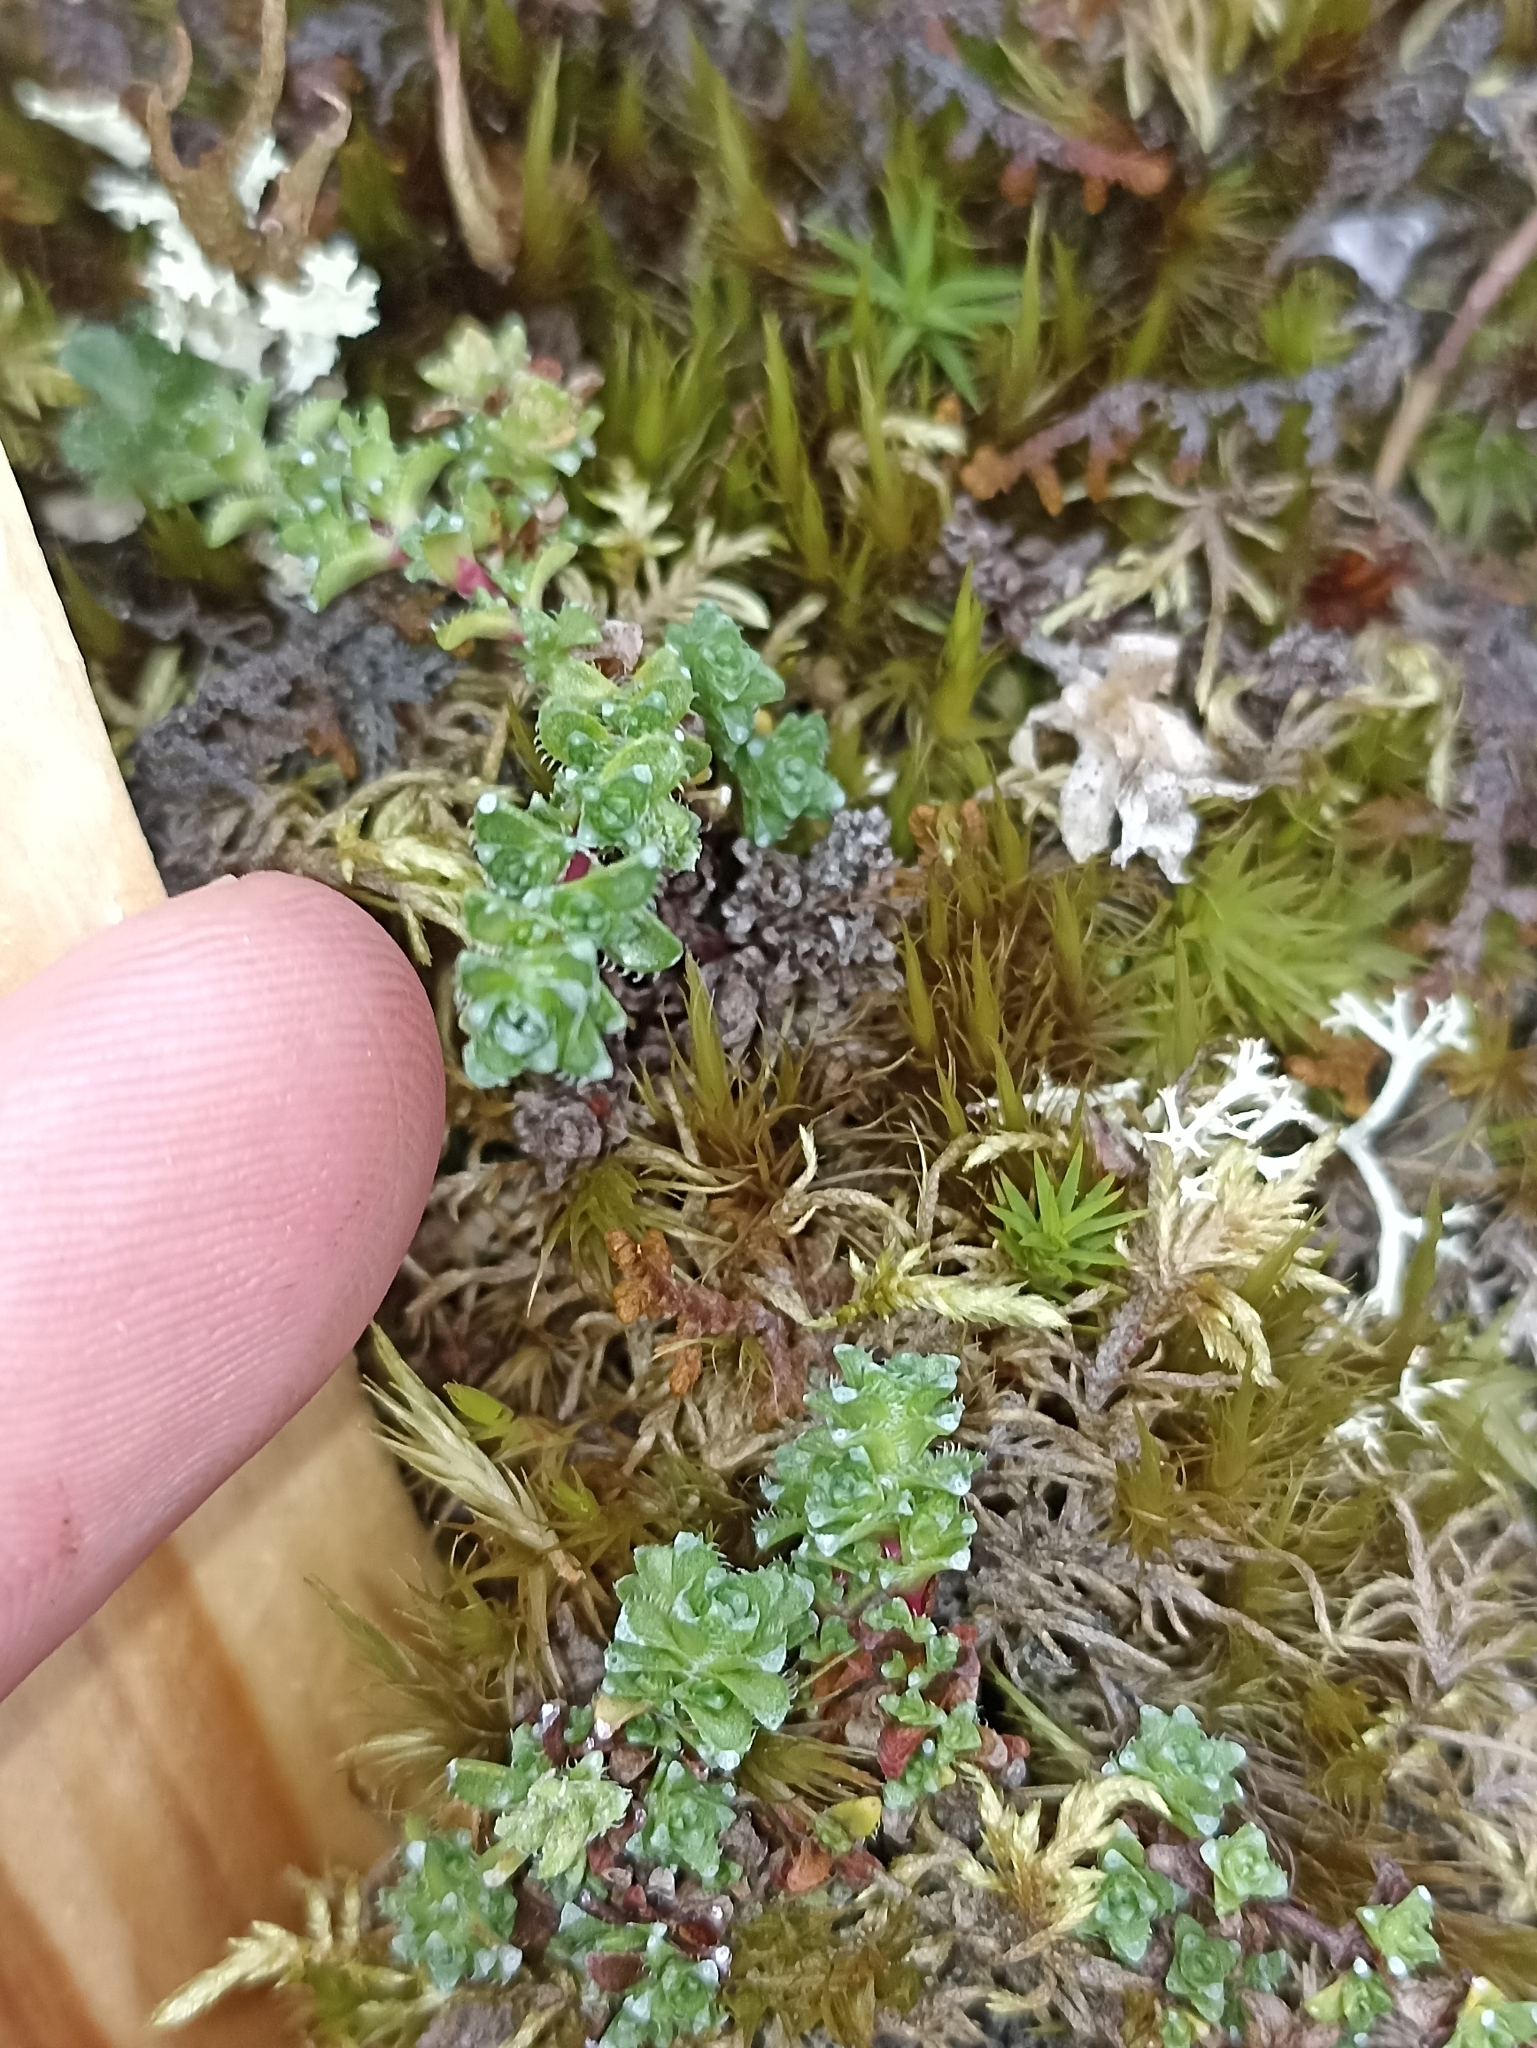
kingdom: Plantae
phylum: Tracheophyta
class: Magnoliopsida
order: Saxifragales
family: Saxifragaceae
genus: Saxifraga
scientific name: Saxifraga oppositifolia
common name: Purple saxifrage
